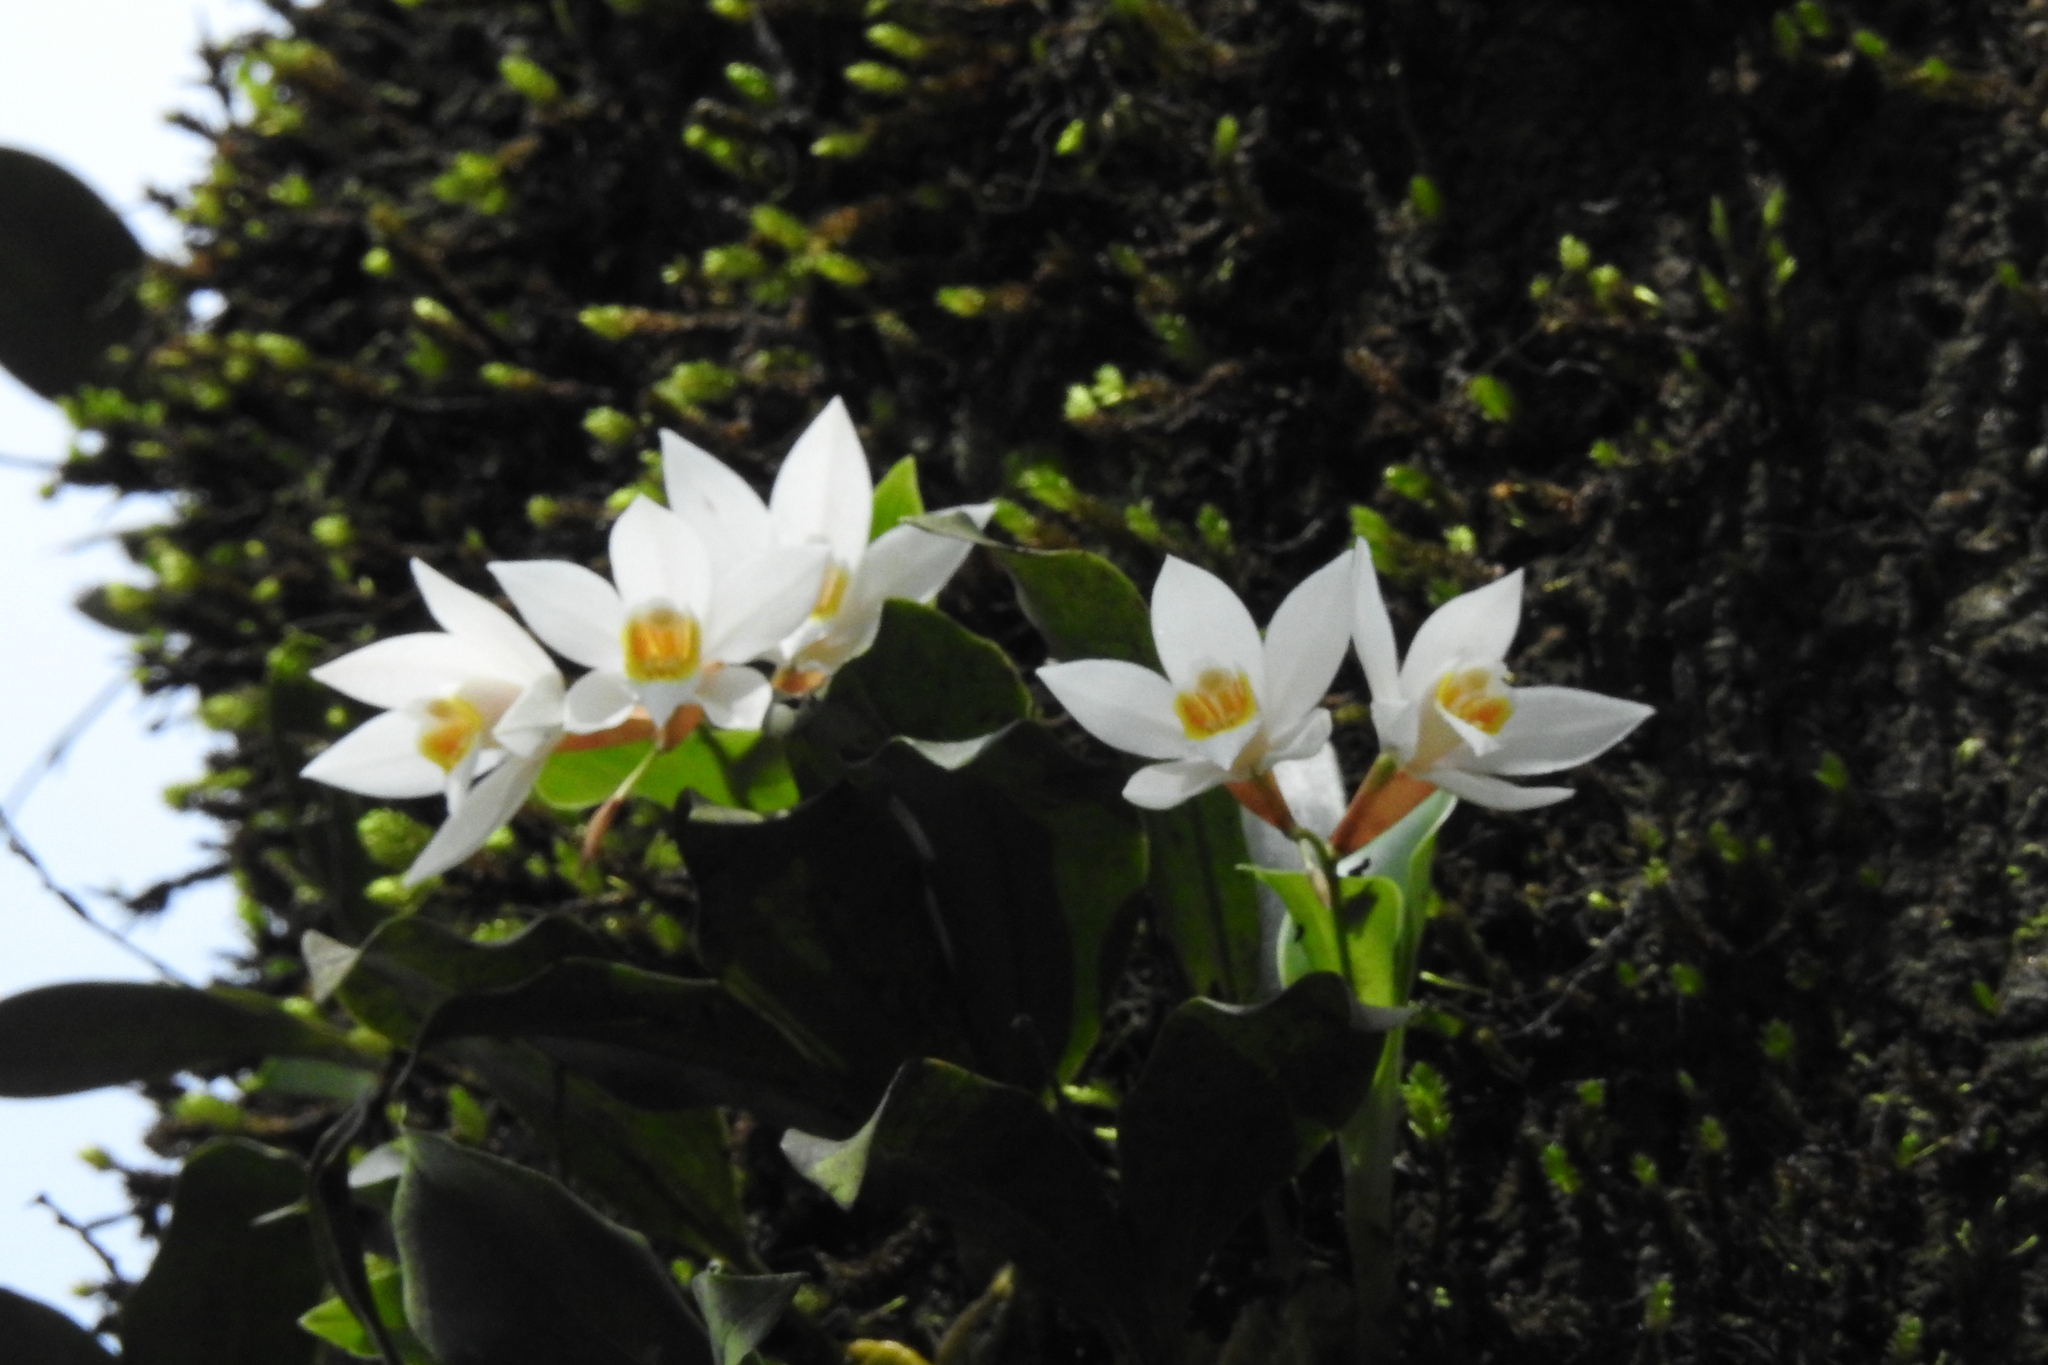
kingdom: Plantae
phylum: Tracheophyta
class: Liliopsida
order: Asparagales
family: Orchidaceae
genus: Coelogyne
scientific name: Coelogyne nervosa
